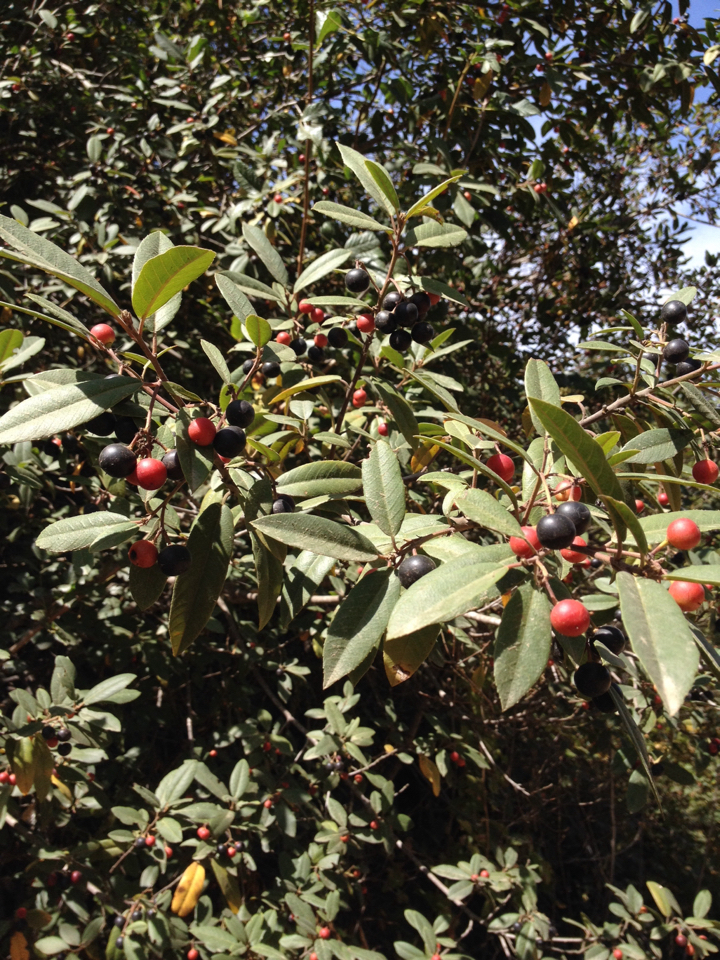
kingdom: Plantae
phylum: Tracheophyta
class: Magnoliopsida
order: Rosales
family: Rhamnaceae
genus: Frangula
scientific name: Frangula californica
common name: California buckthorn
